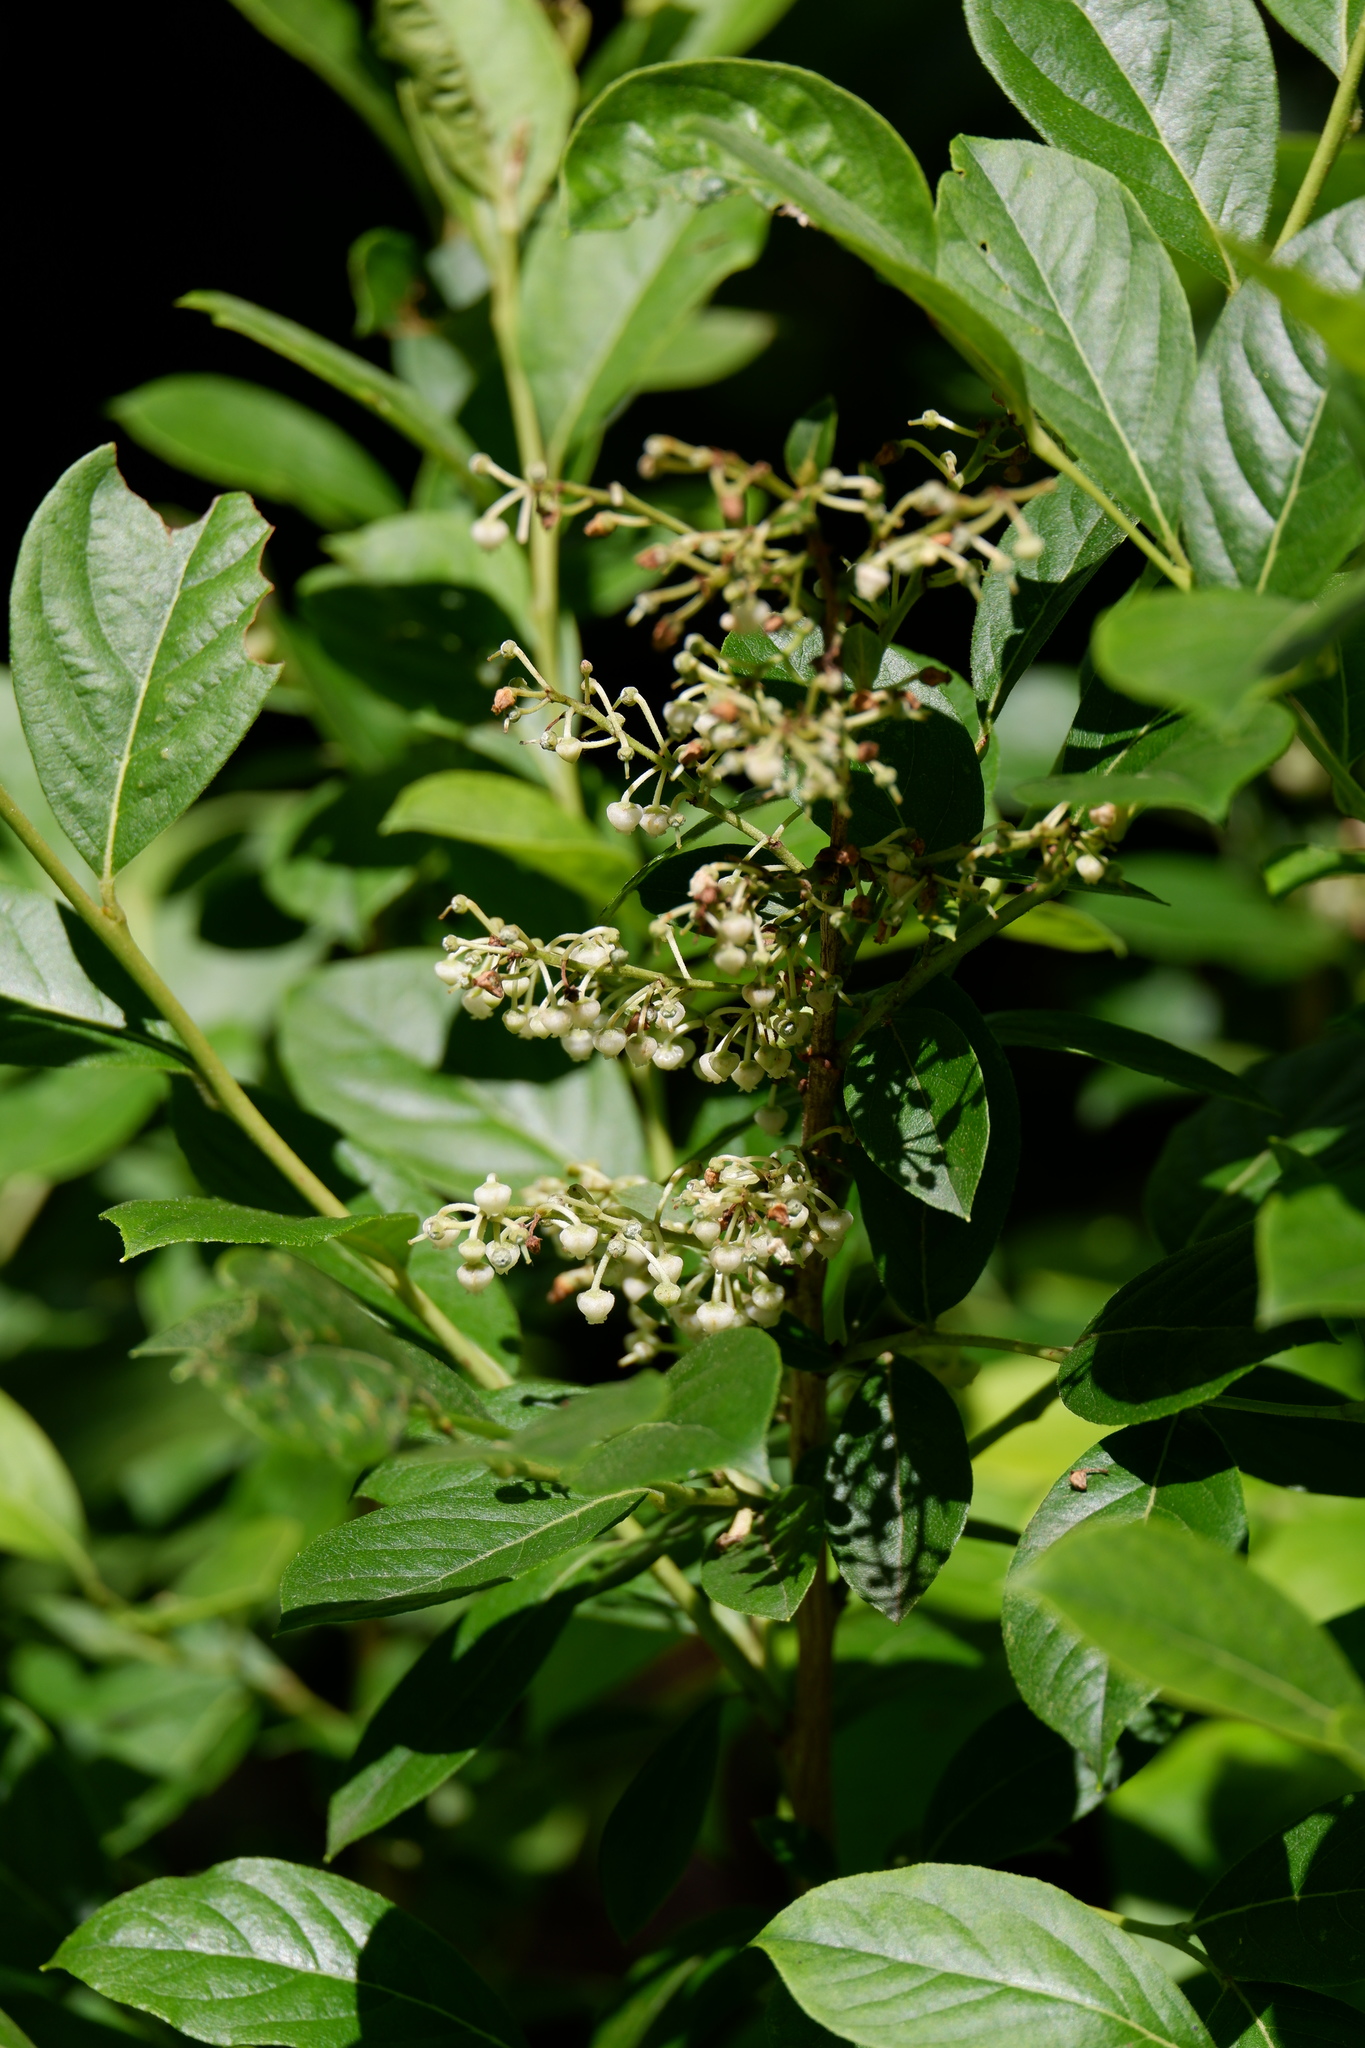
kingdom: Plantae
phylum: Tracheophyta
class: Magnoliopsida
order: Ericales
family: Ericaceae
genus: Lyonia
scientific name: Lyonia ligustrina
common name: Maleberry
